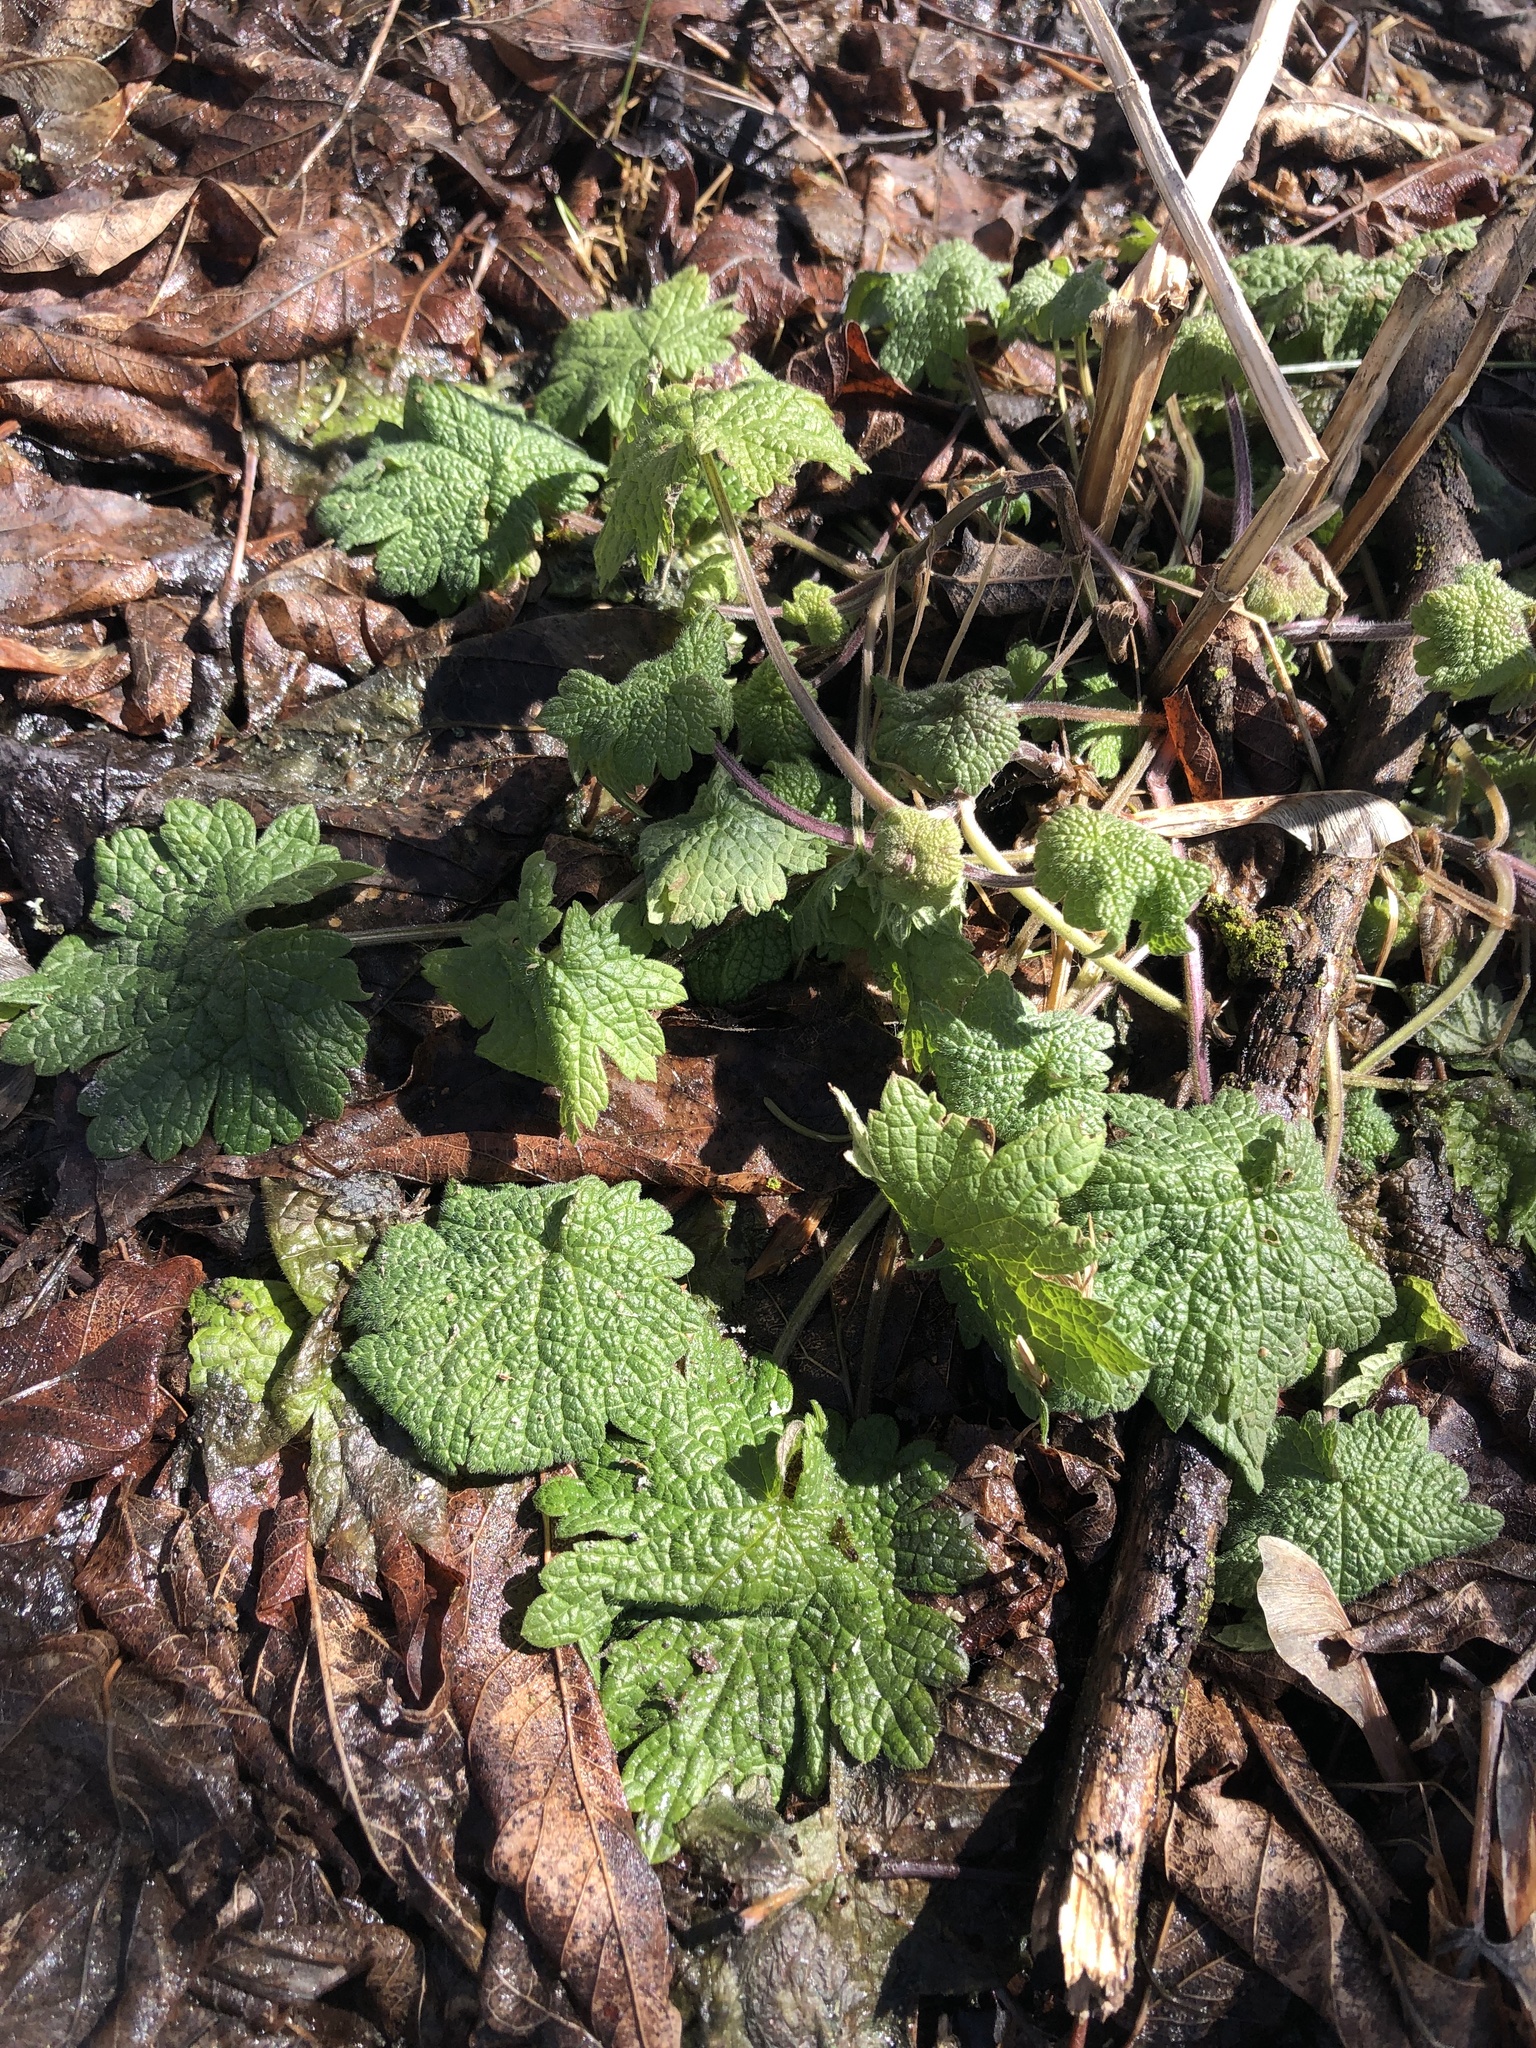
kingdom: Plantae
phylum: Tracheophyta
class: Magnoliopsida
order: Lamiales
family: Lamiaceae
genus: Leonurus
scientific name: Leonurus cardiaca
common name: Motherwort
